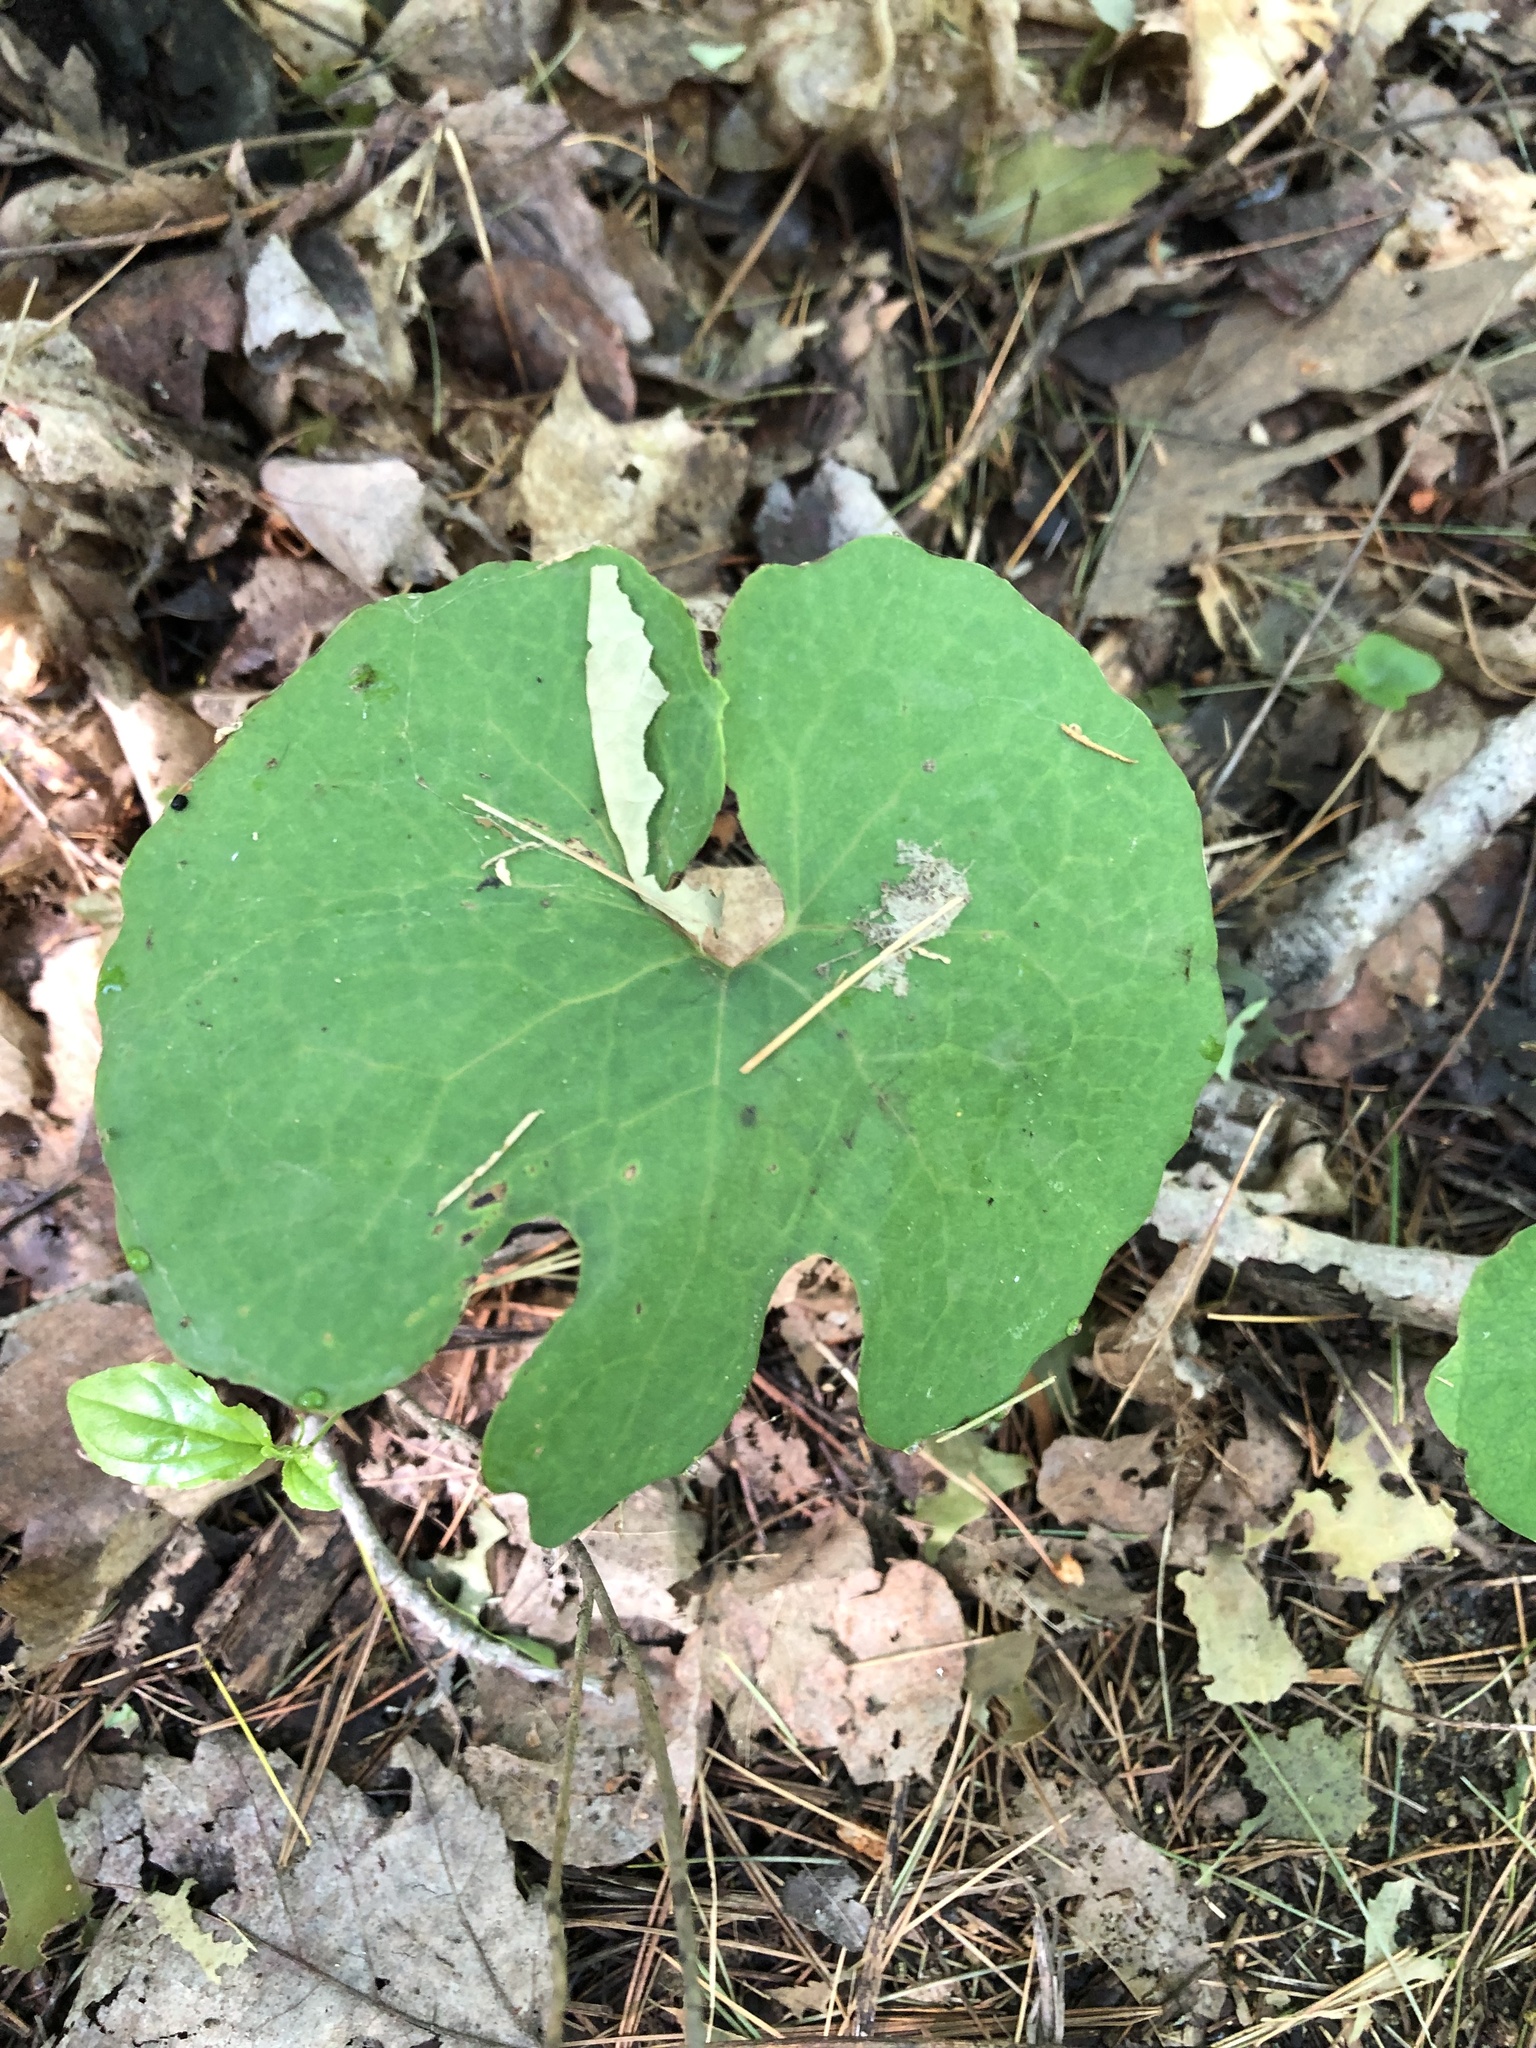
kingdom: Plantae
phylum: Tracheophyta
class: Magnoliopsida
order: Ranunculales
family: Papaveraceae
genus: Sanguinaria
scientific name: Sanguinaria canadensis
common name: Bloodroot
